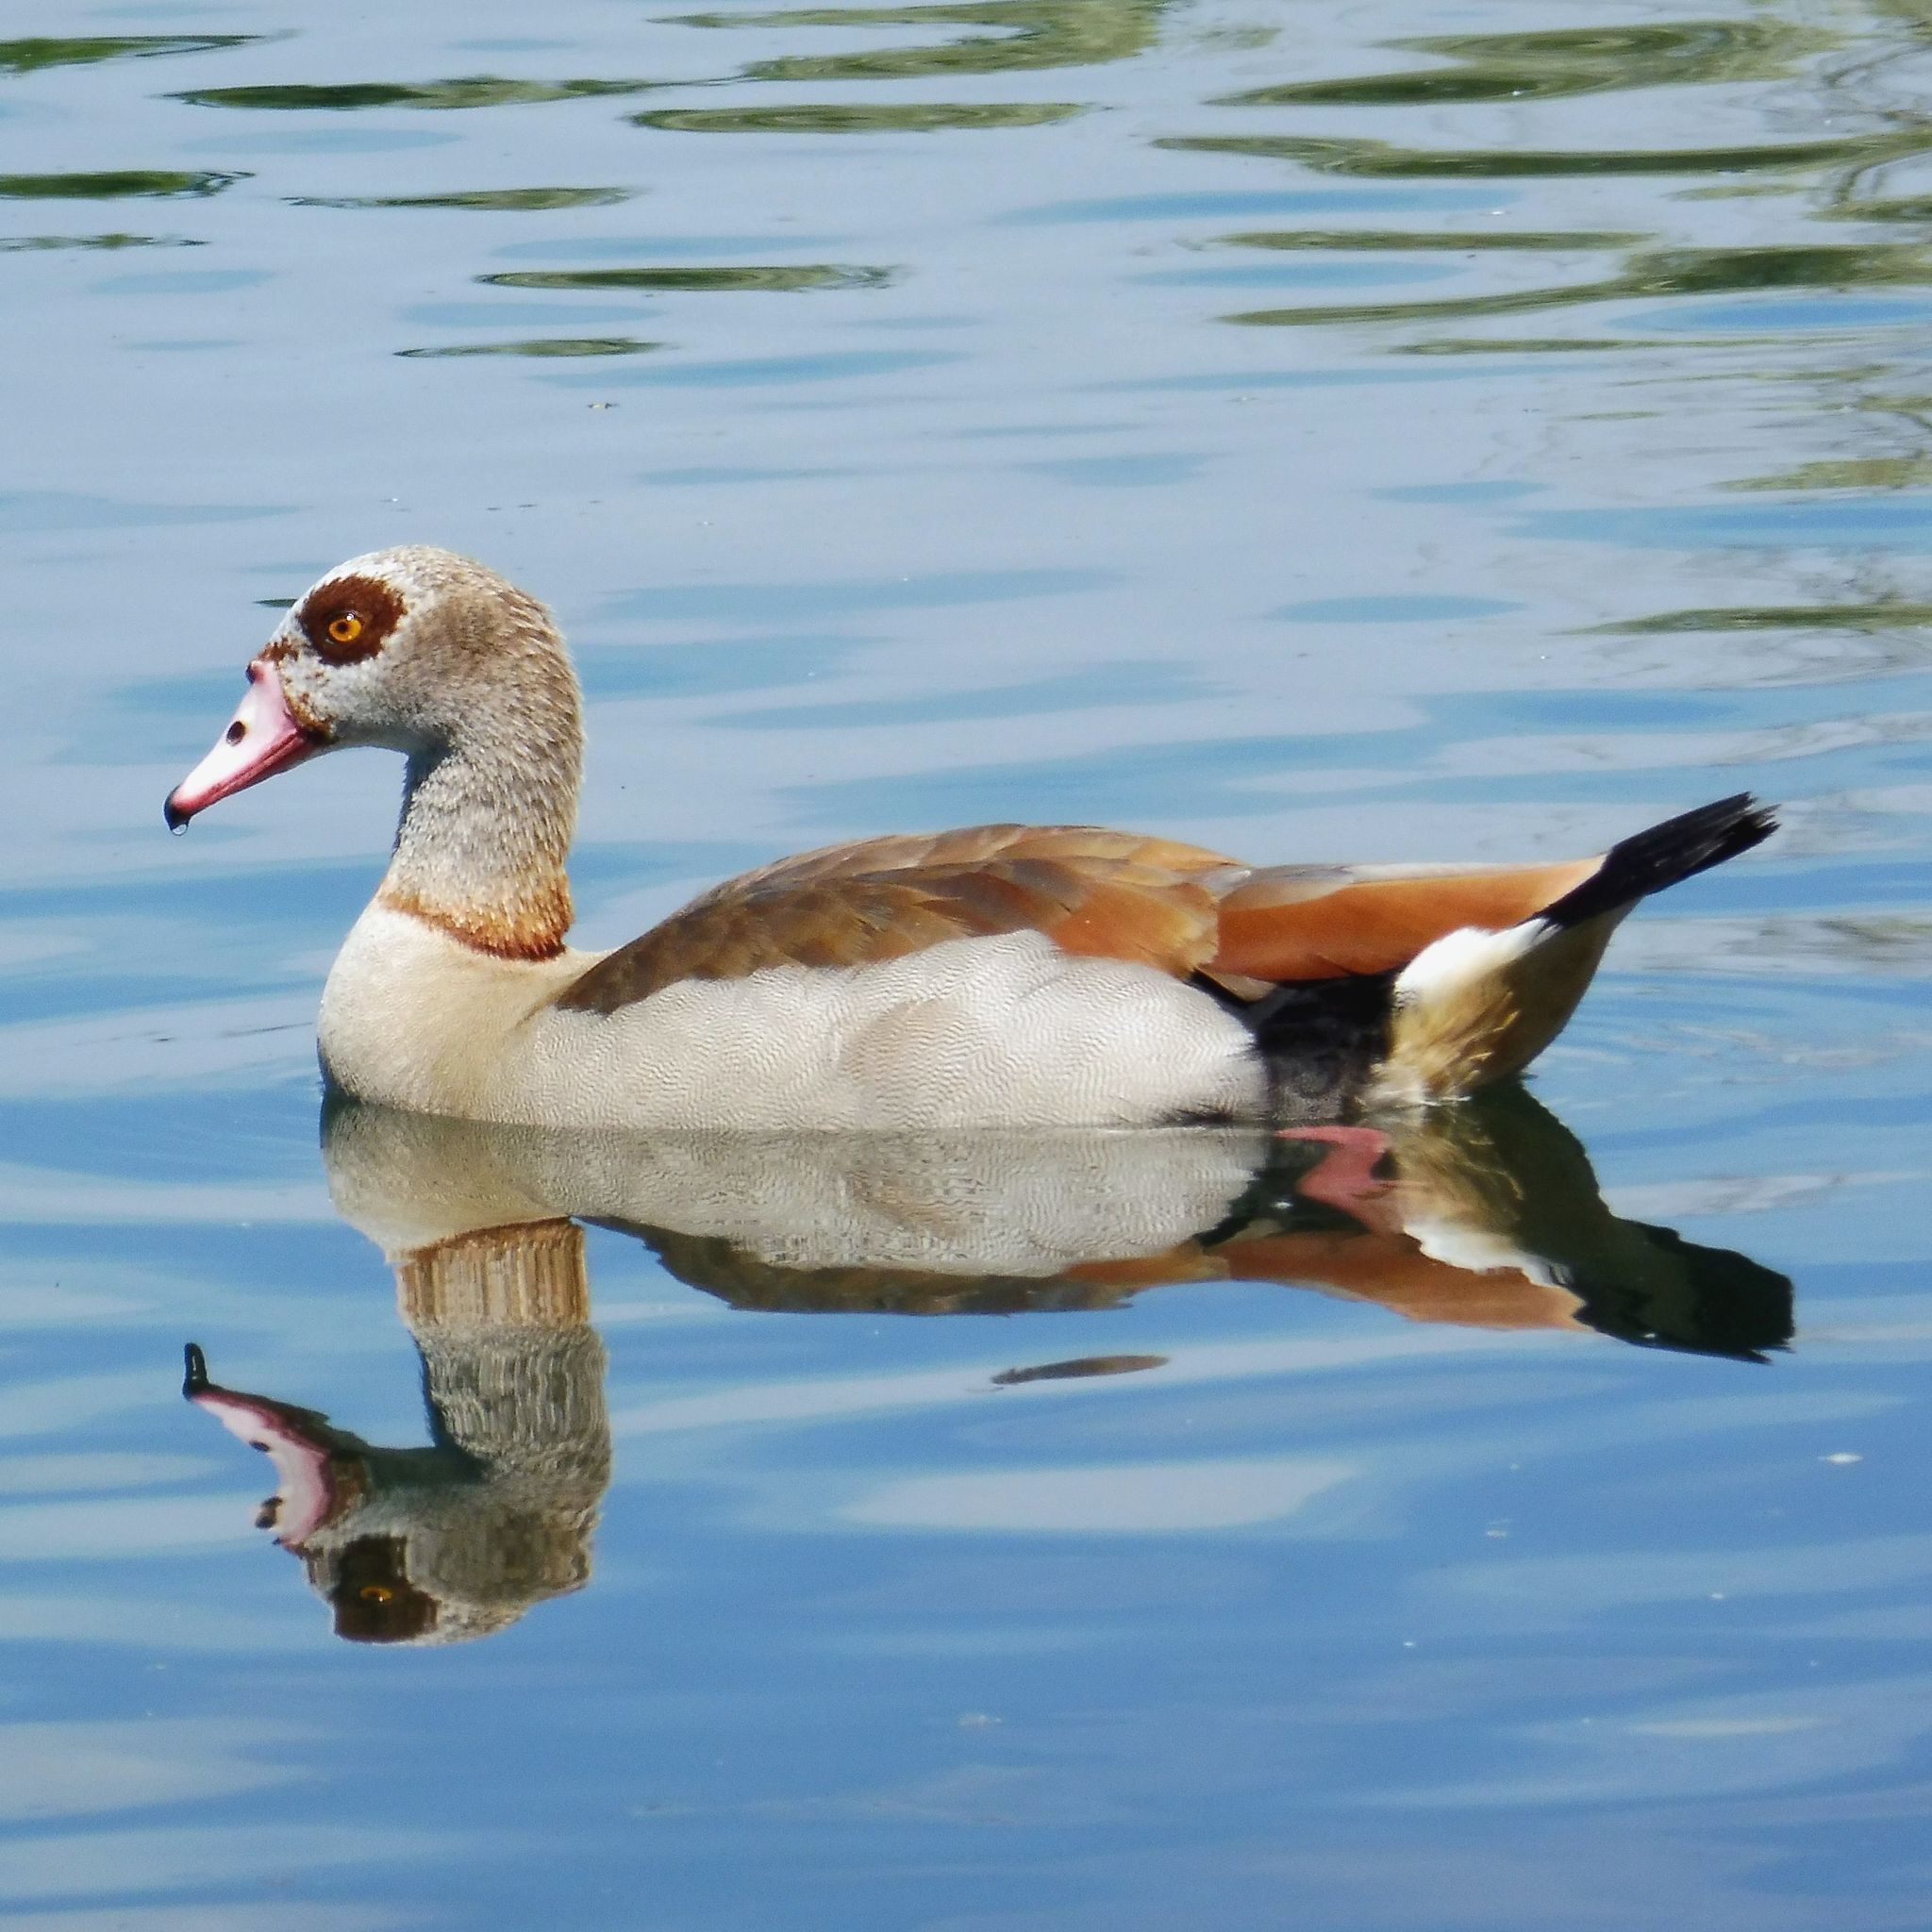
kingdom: Animalia
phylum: Chordata
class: Aves
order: Anseriformes
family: Anatidae
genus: Alopochen
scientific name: Alopochen aegyptiaca
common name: Egyptian goose
